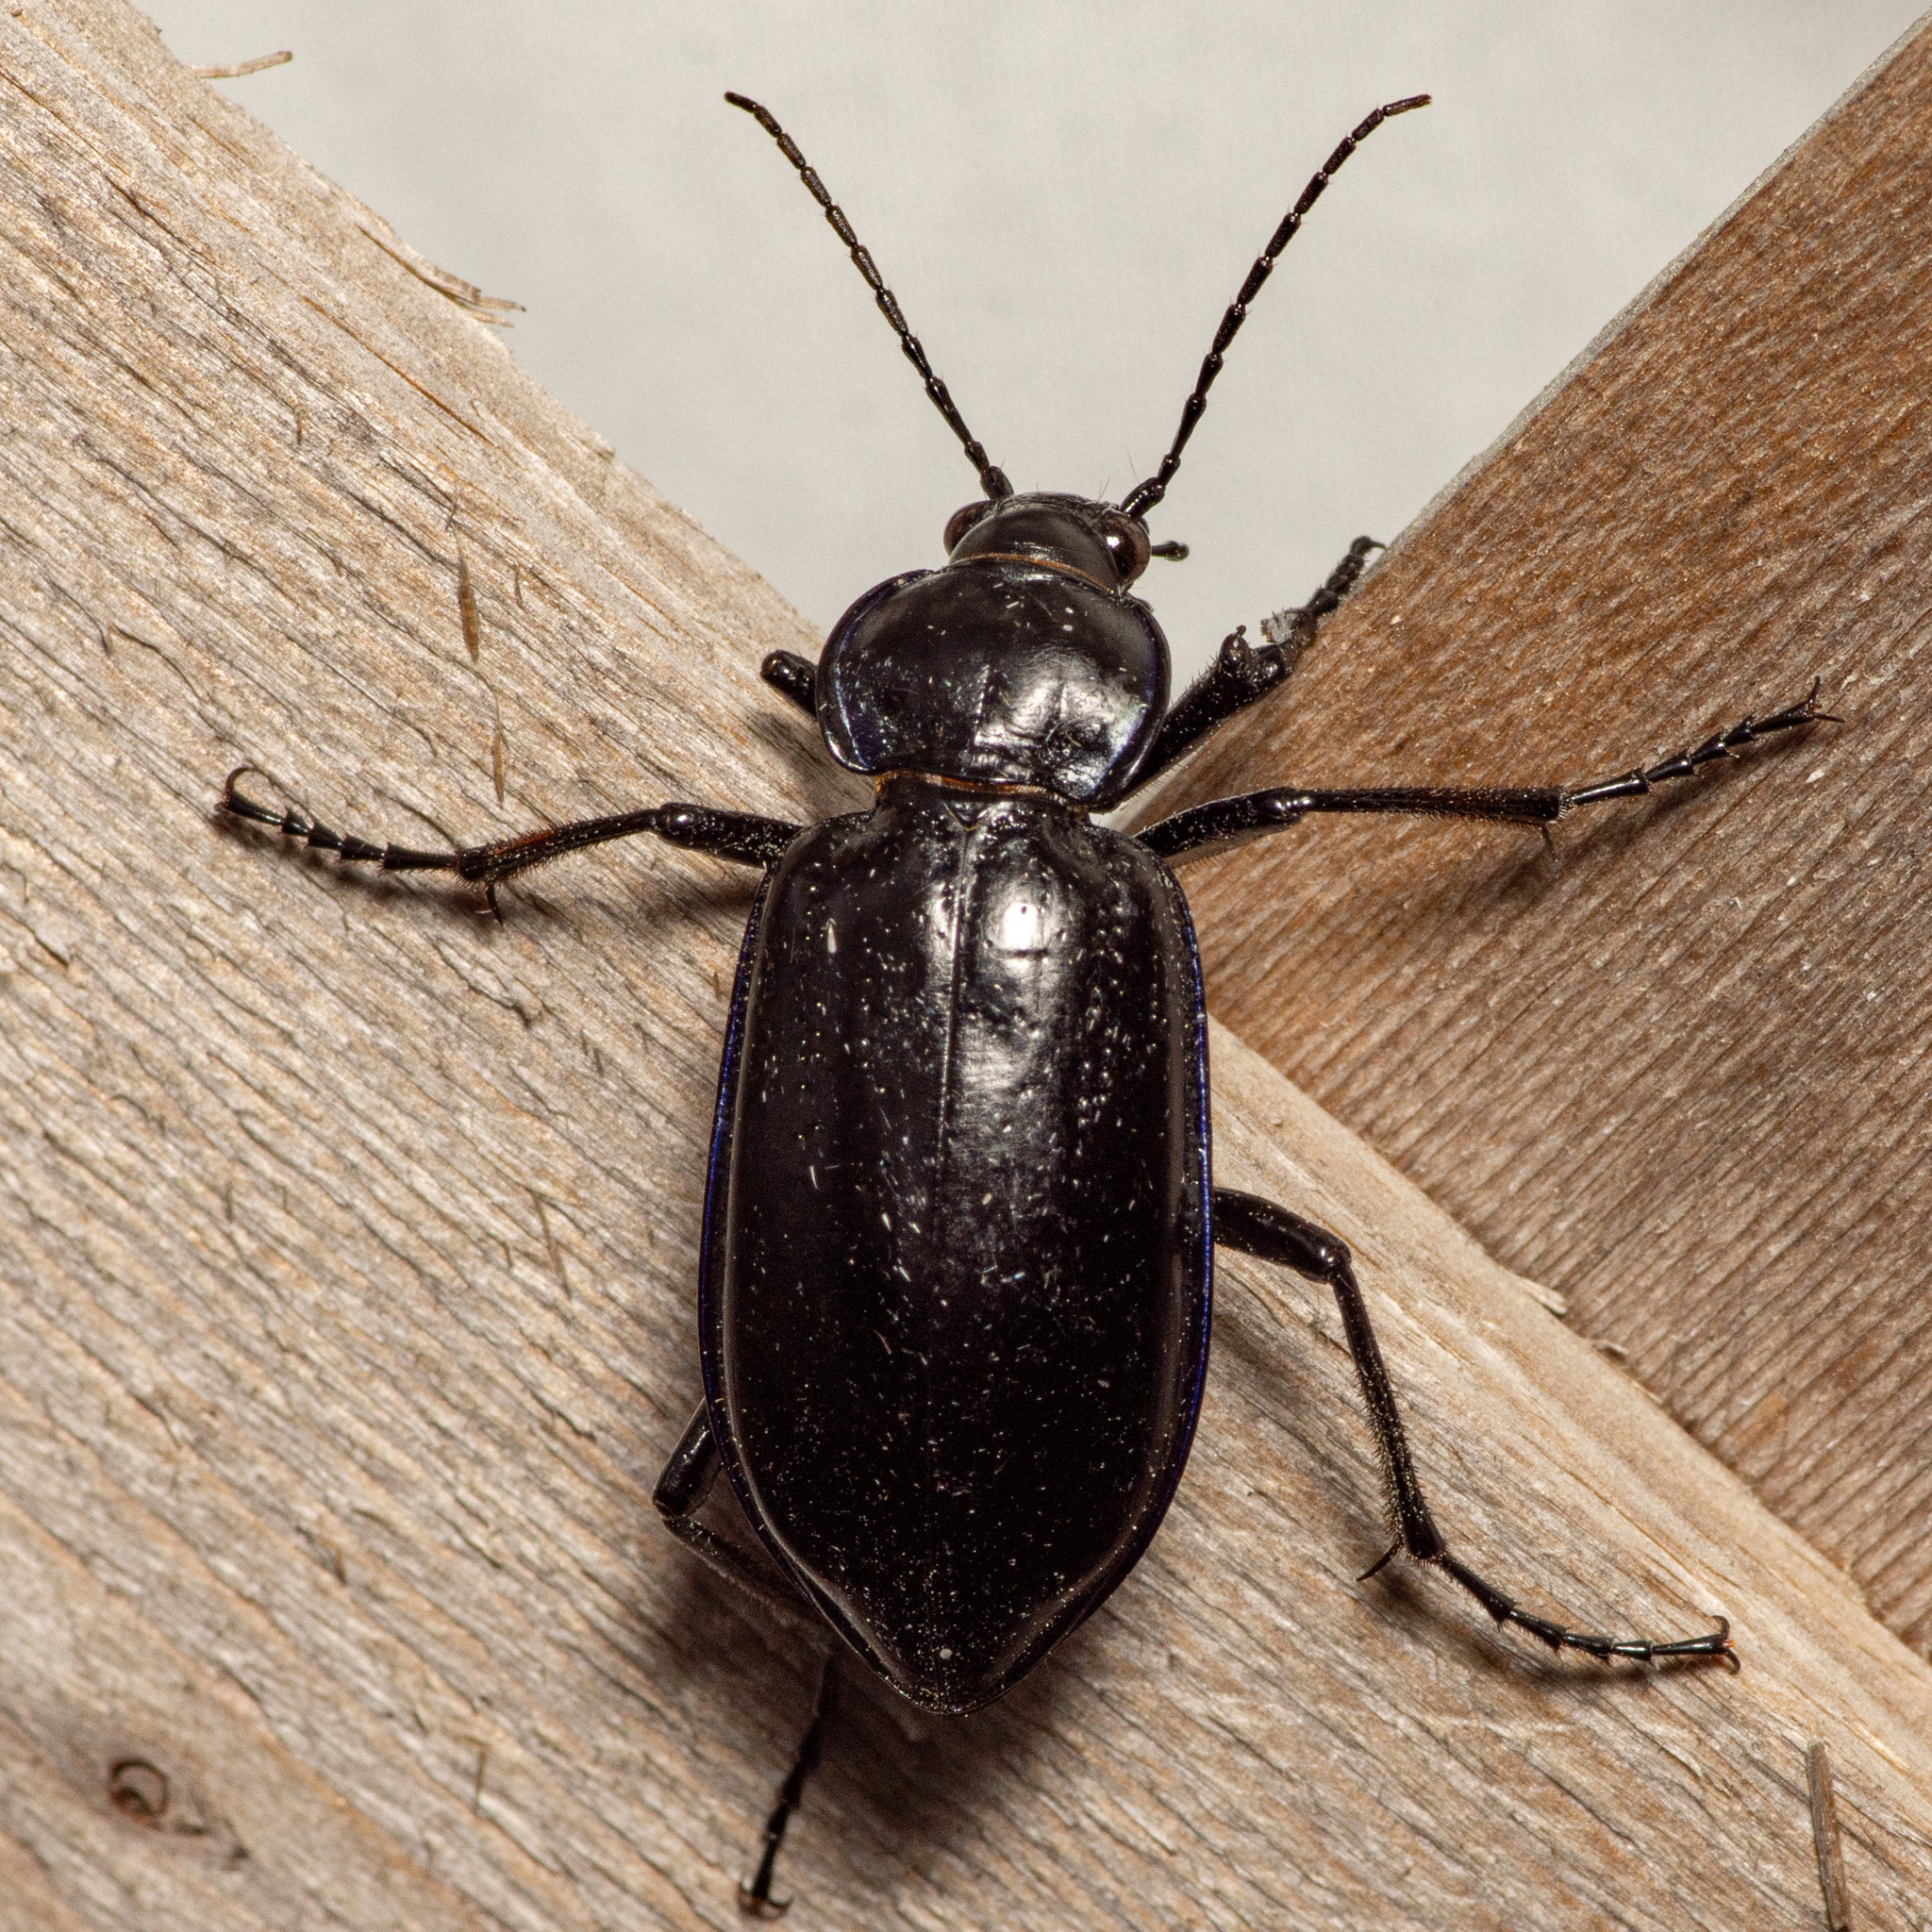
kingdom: Animalia
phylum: Arthropoda
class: Insecta
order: Coleoptera
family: Carabidae
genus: Calosoma
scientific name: Calosoma macrum
